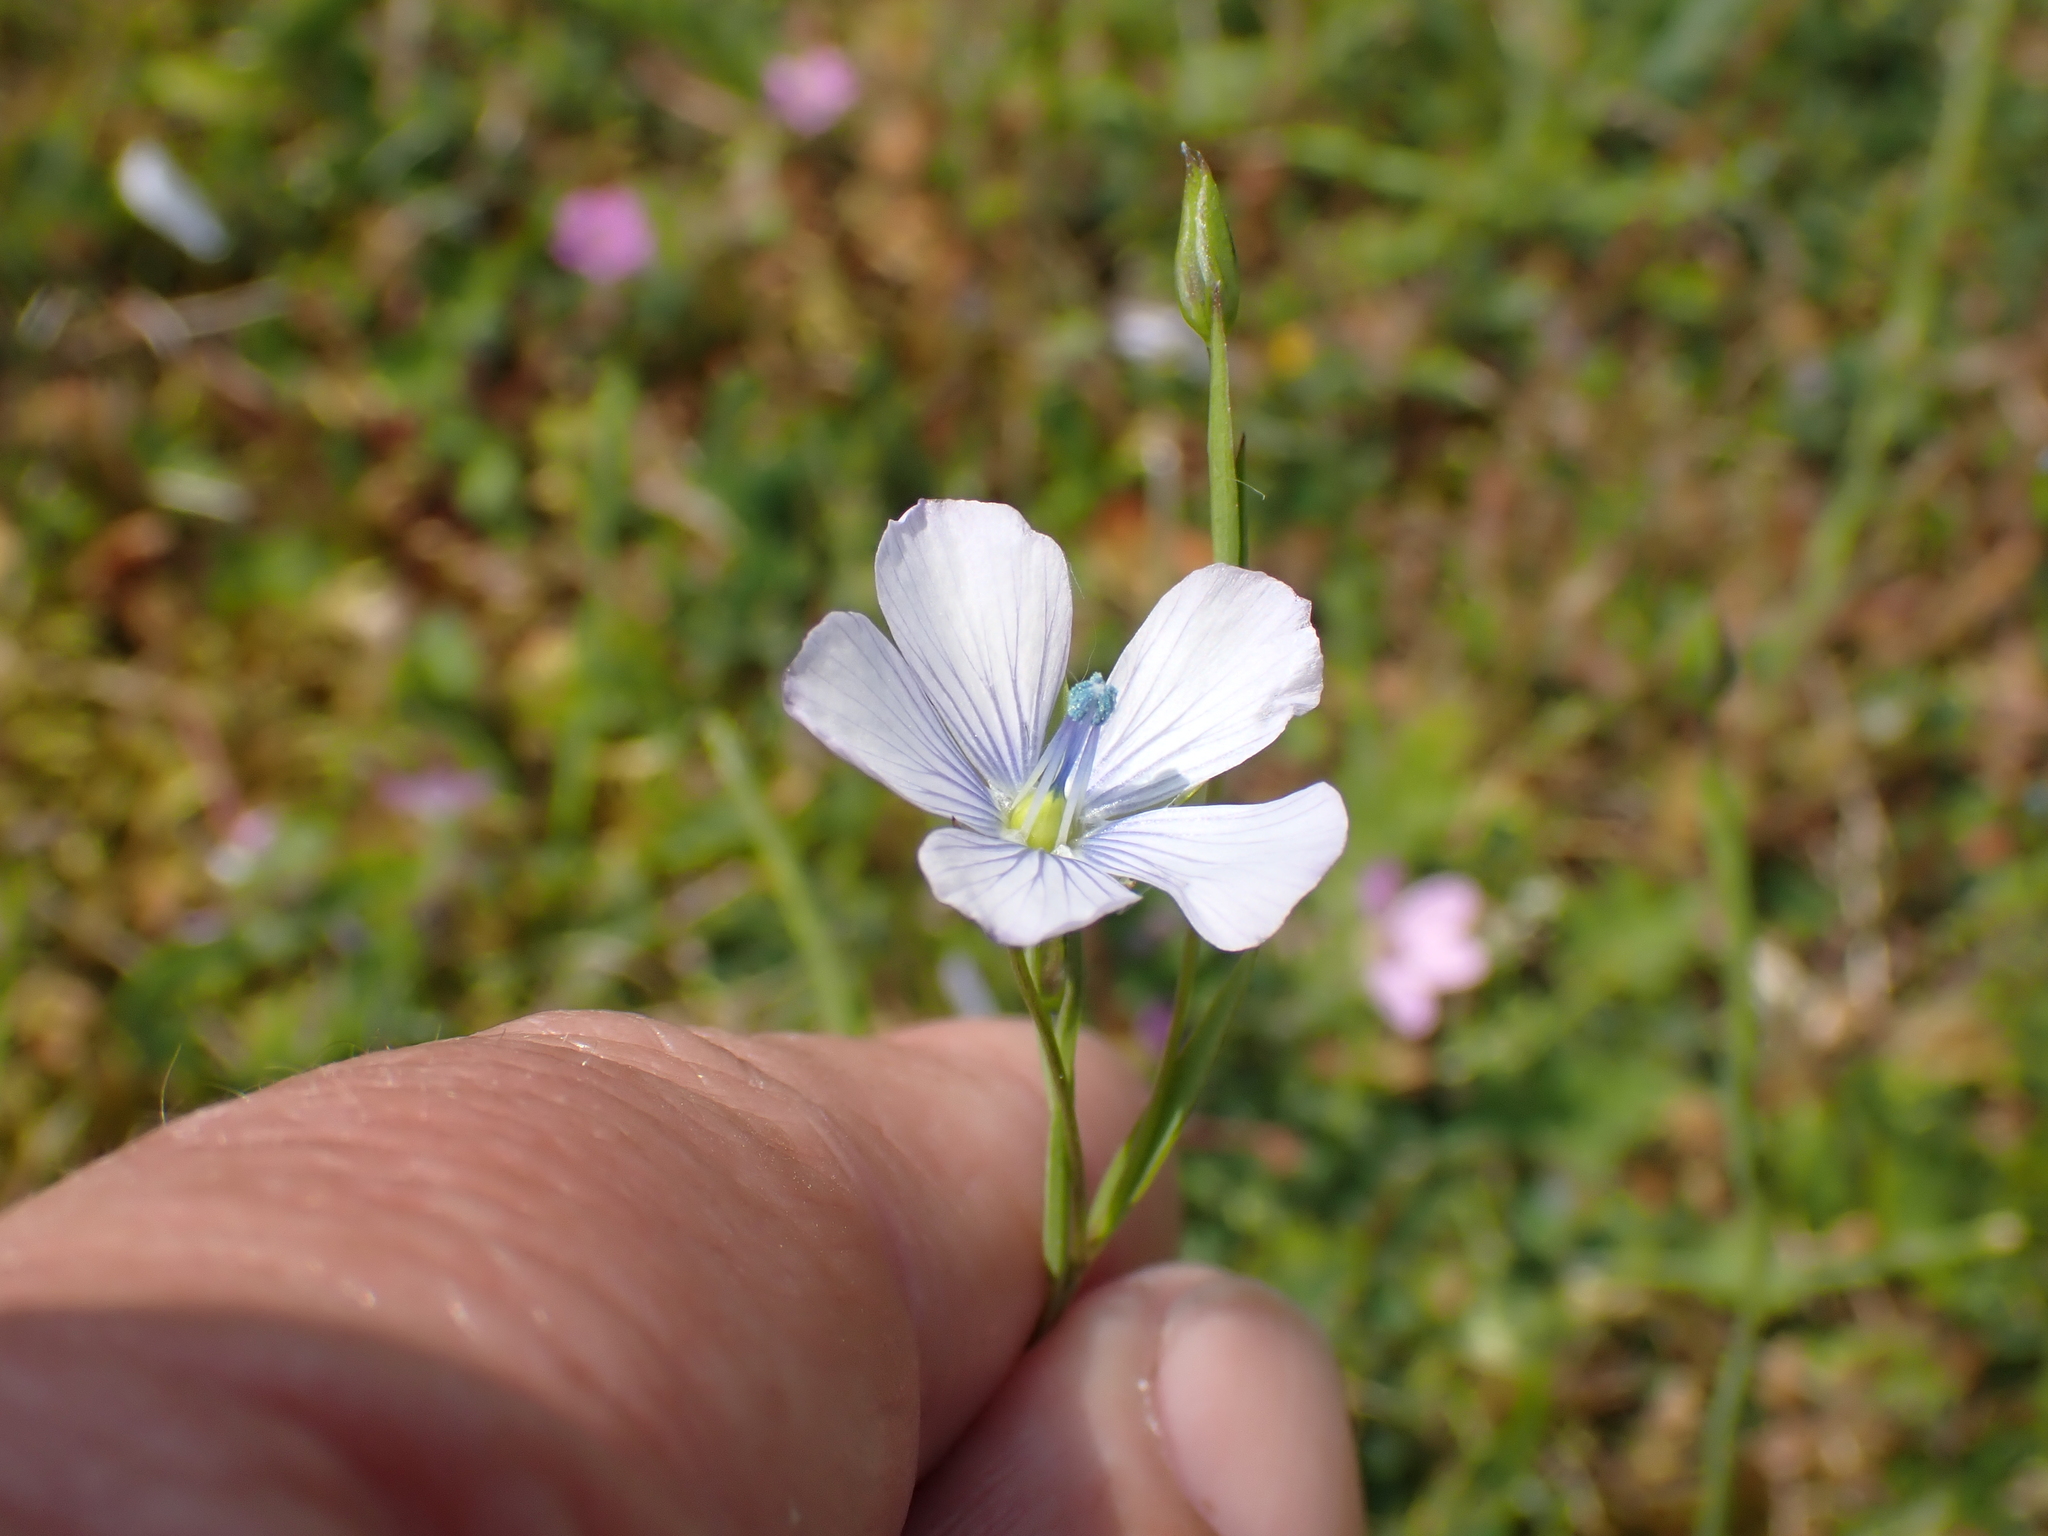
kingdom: Plantae
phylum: Tracheophyta
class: Magnoliopsida
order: Malpighiales
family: Linaceae
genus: Linum
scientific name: Linum bienne
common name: Pale flax
